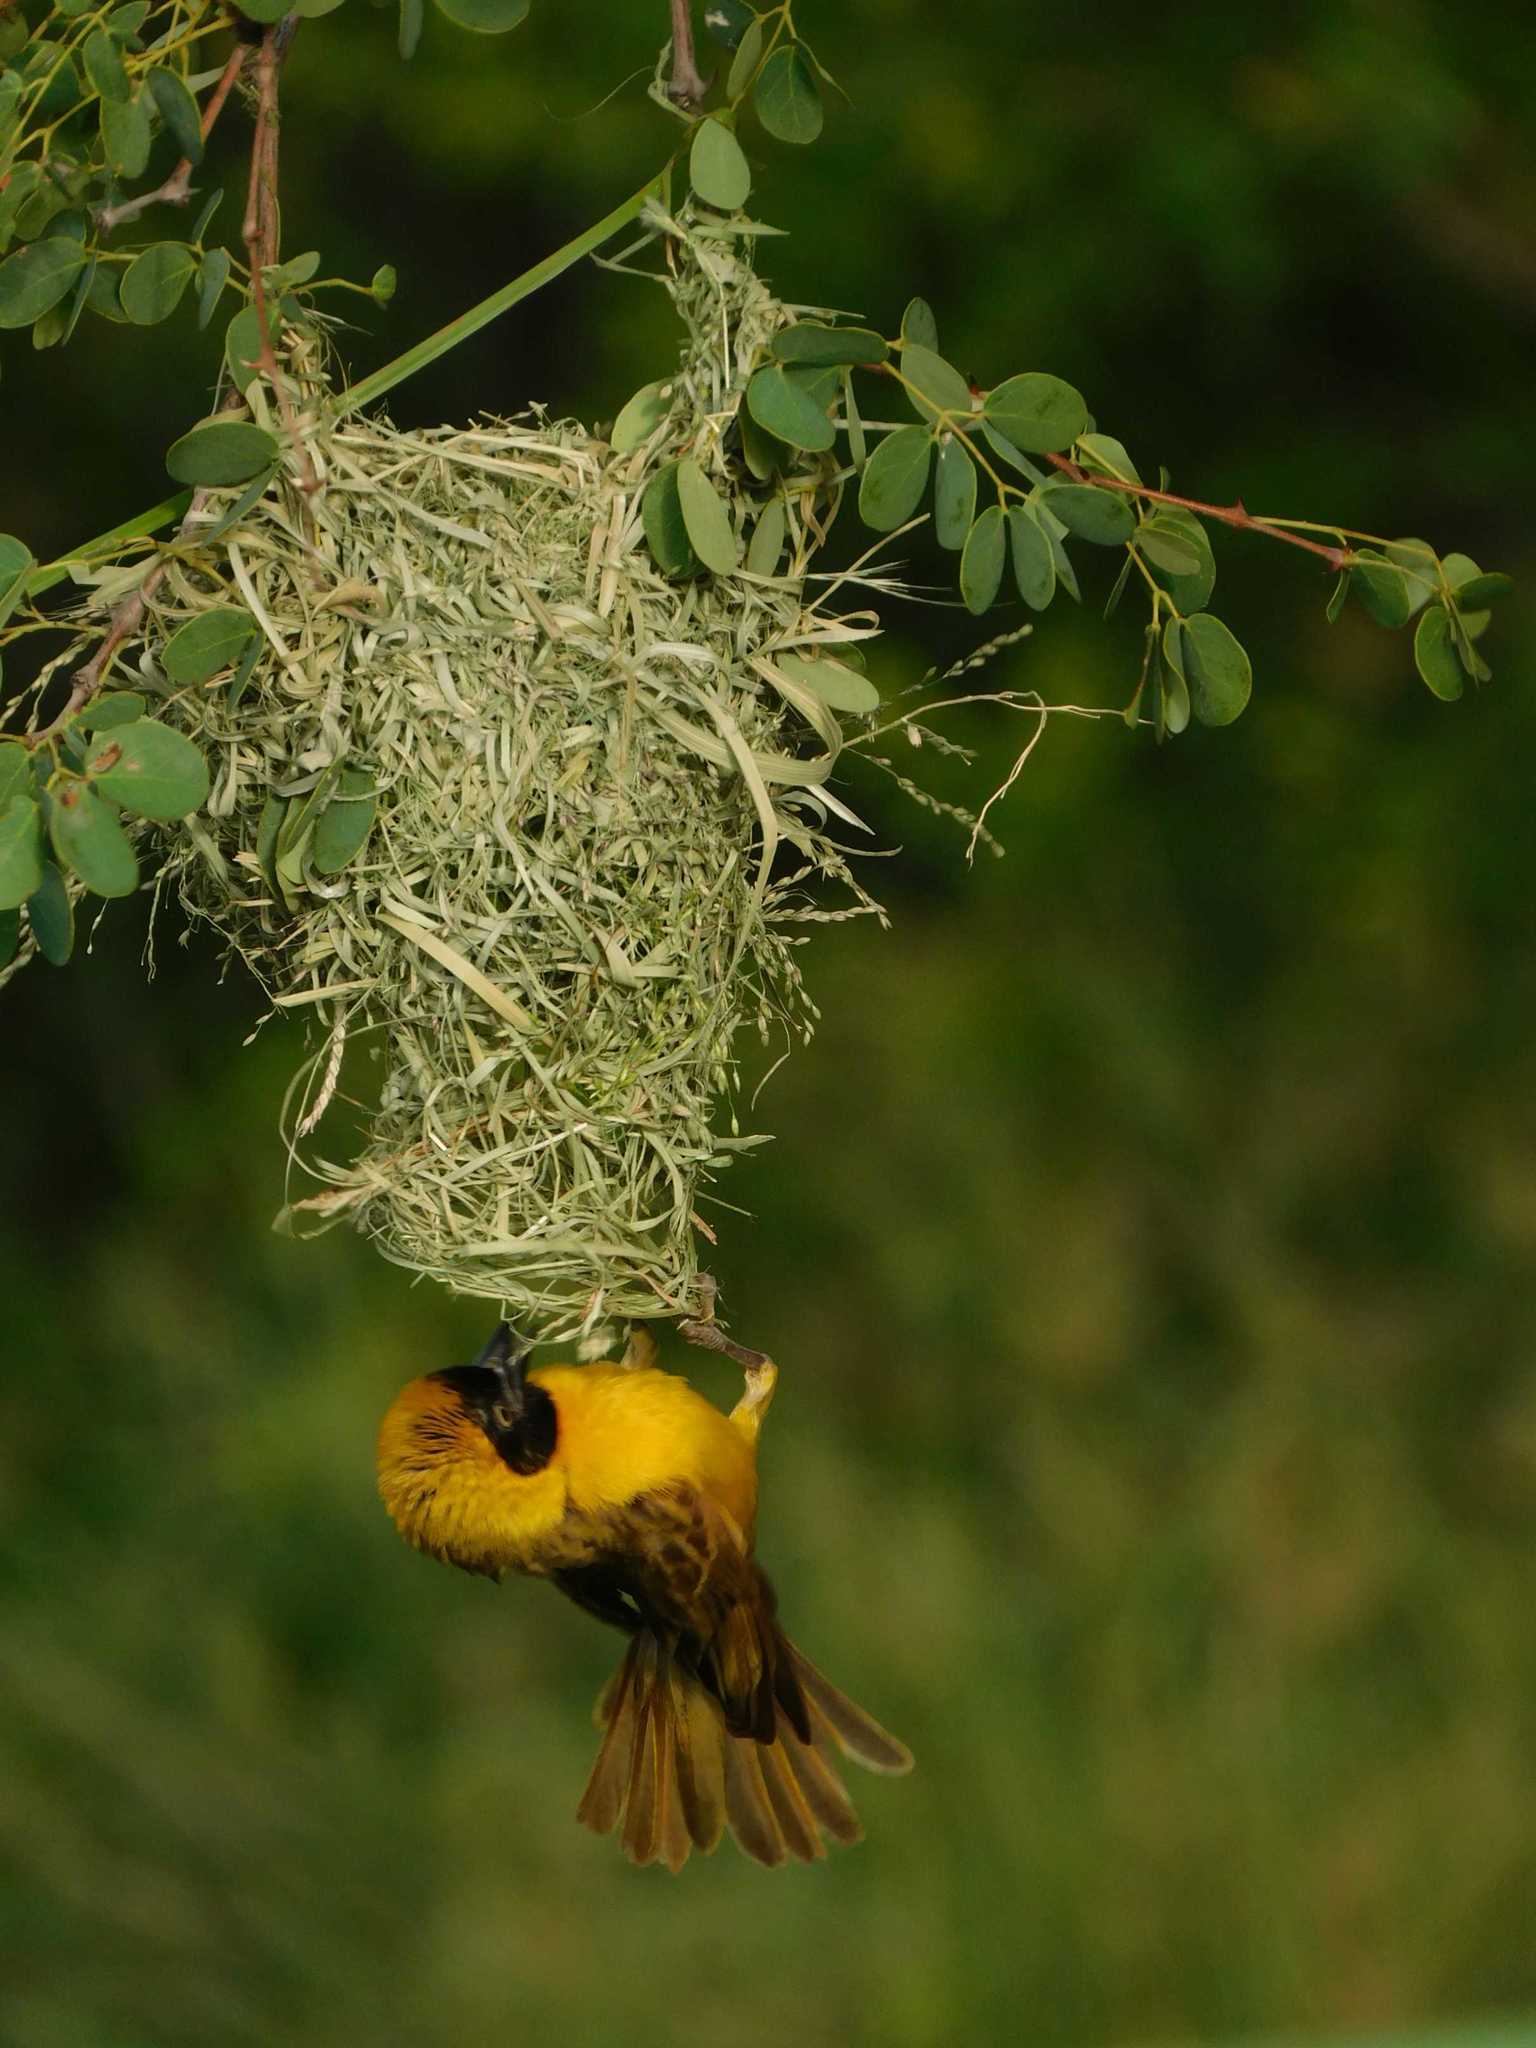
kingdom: Animalia
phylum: Chordata
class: Aves
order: Passeriformes
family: Ploceidae
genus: Ploceus
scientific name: Ploceus intermedius
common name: Lesser masked weaver
